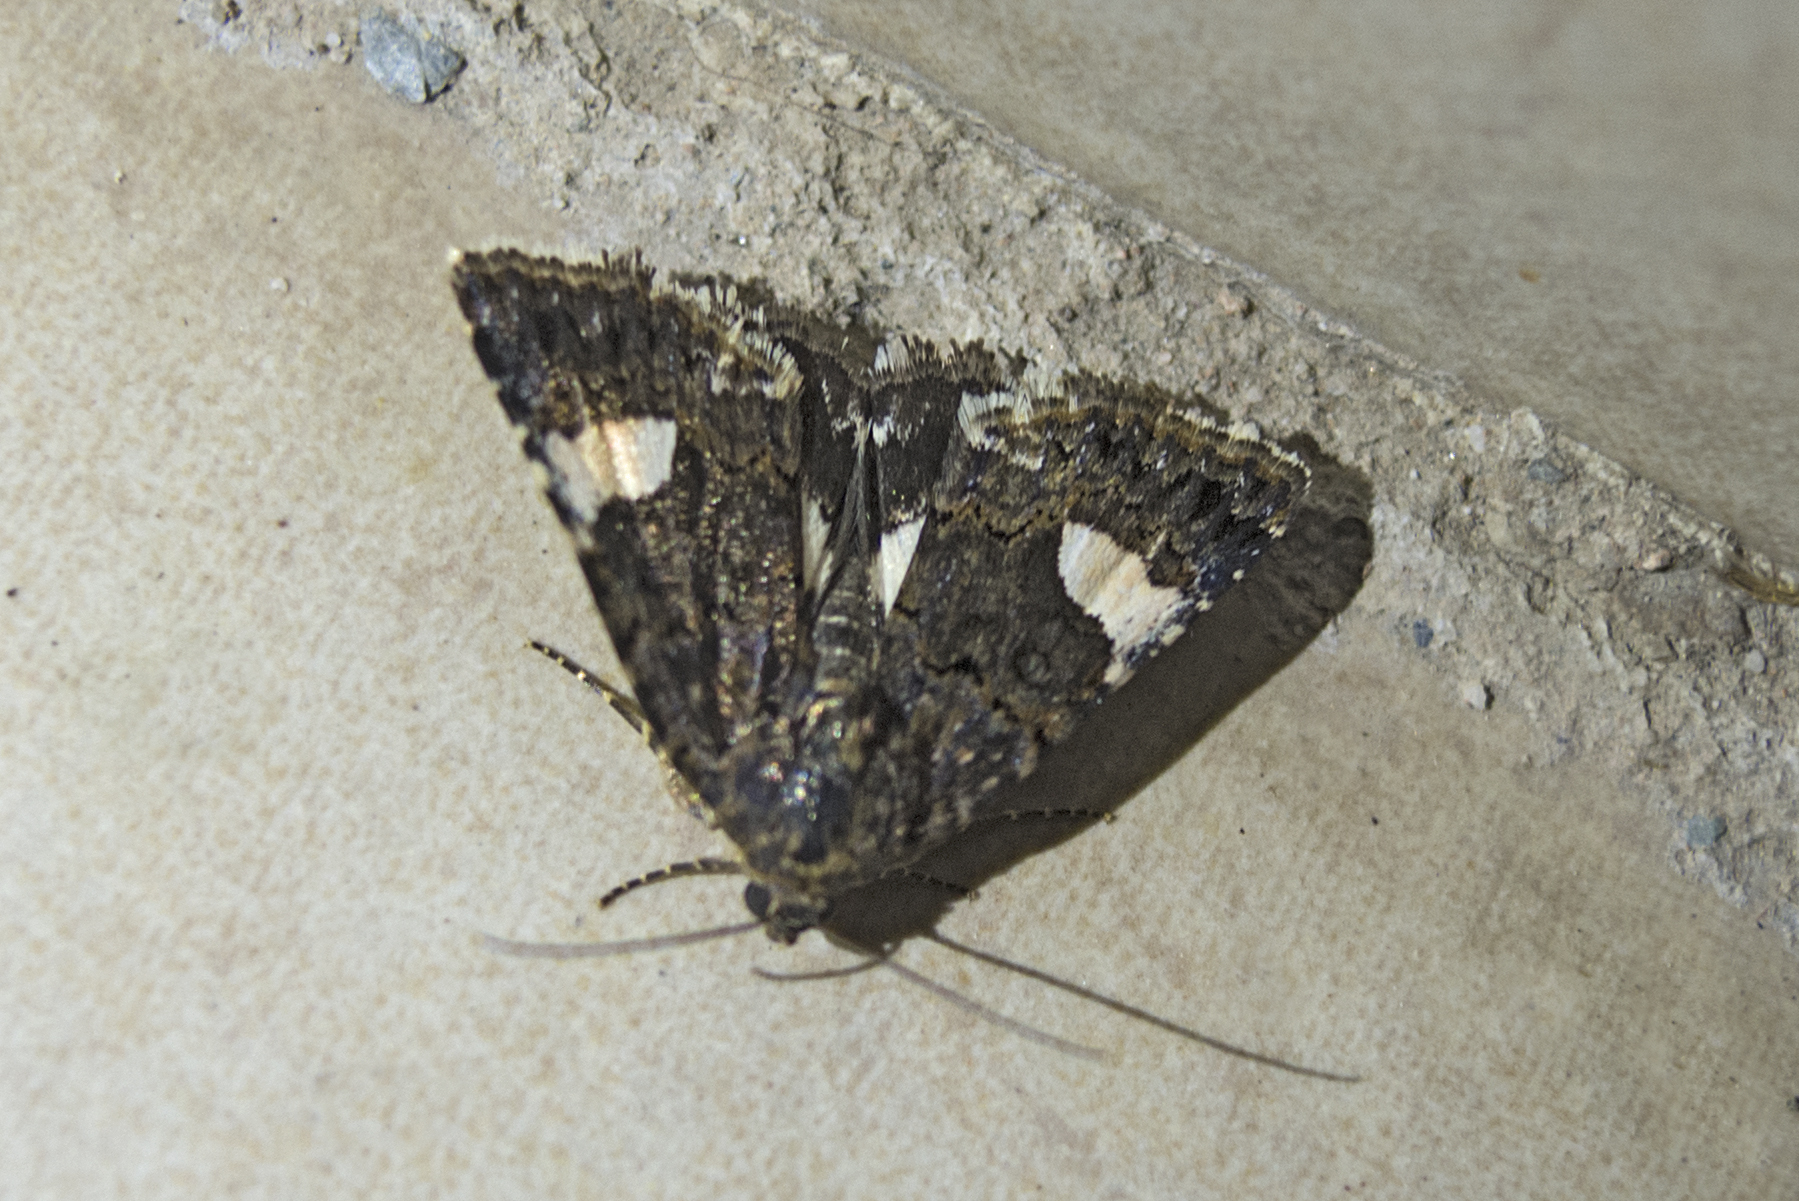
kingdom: Animalia
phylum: Arthropoda
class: Insecta
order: Lepidoptera
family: Erebidae
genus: Tyta
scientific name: Tyta luctuosa
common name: Four-spotted
